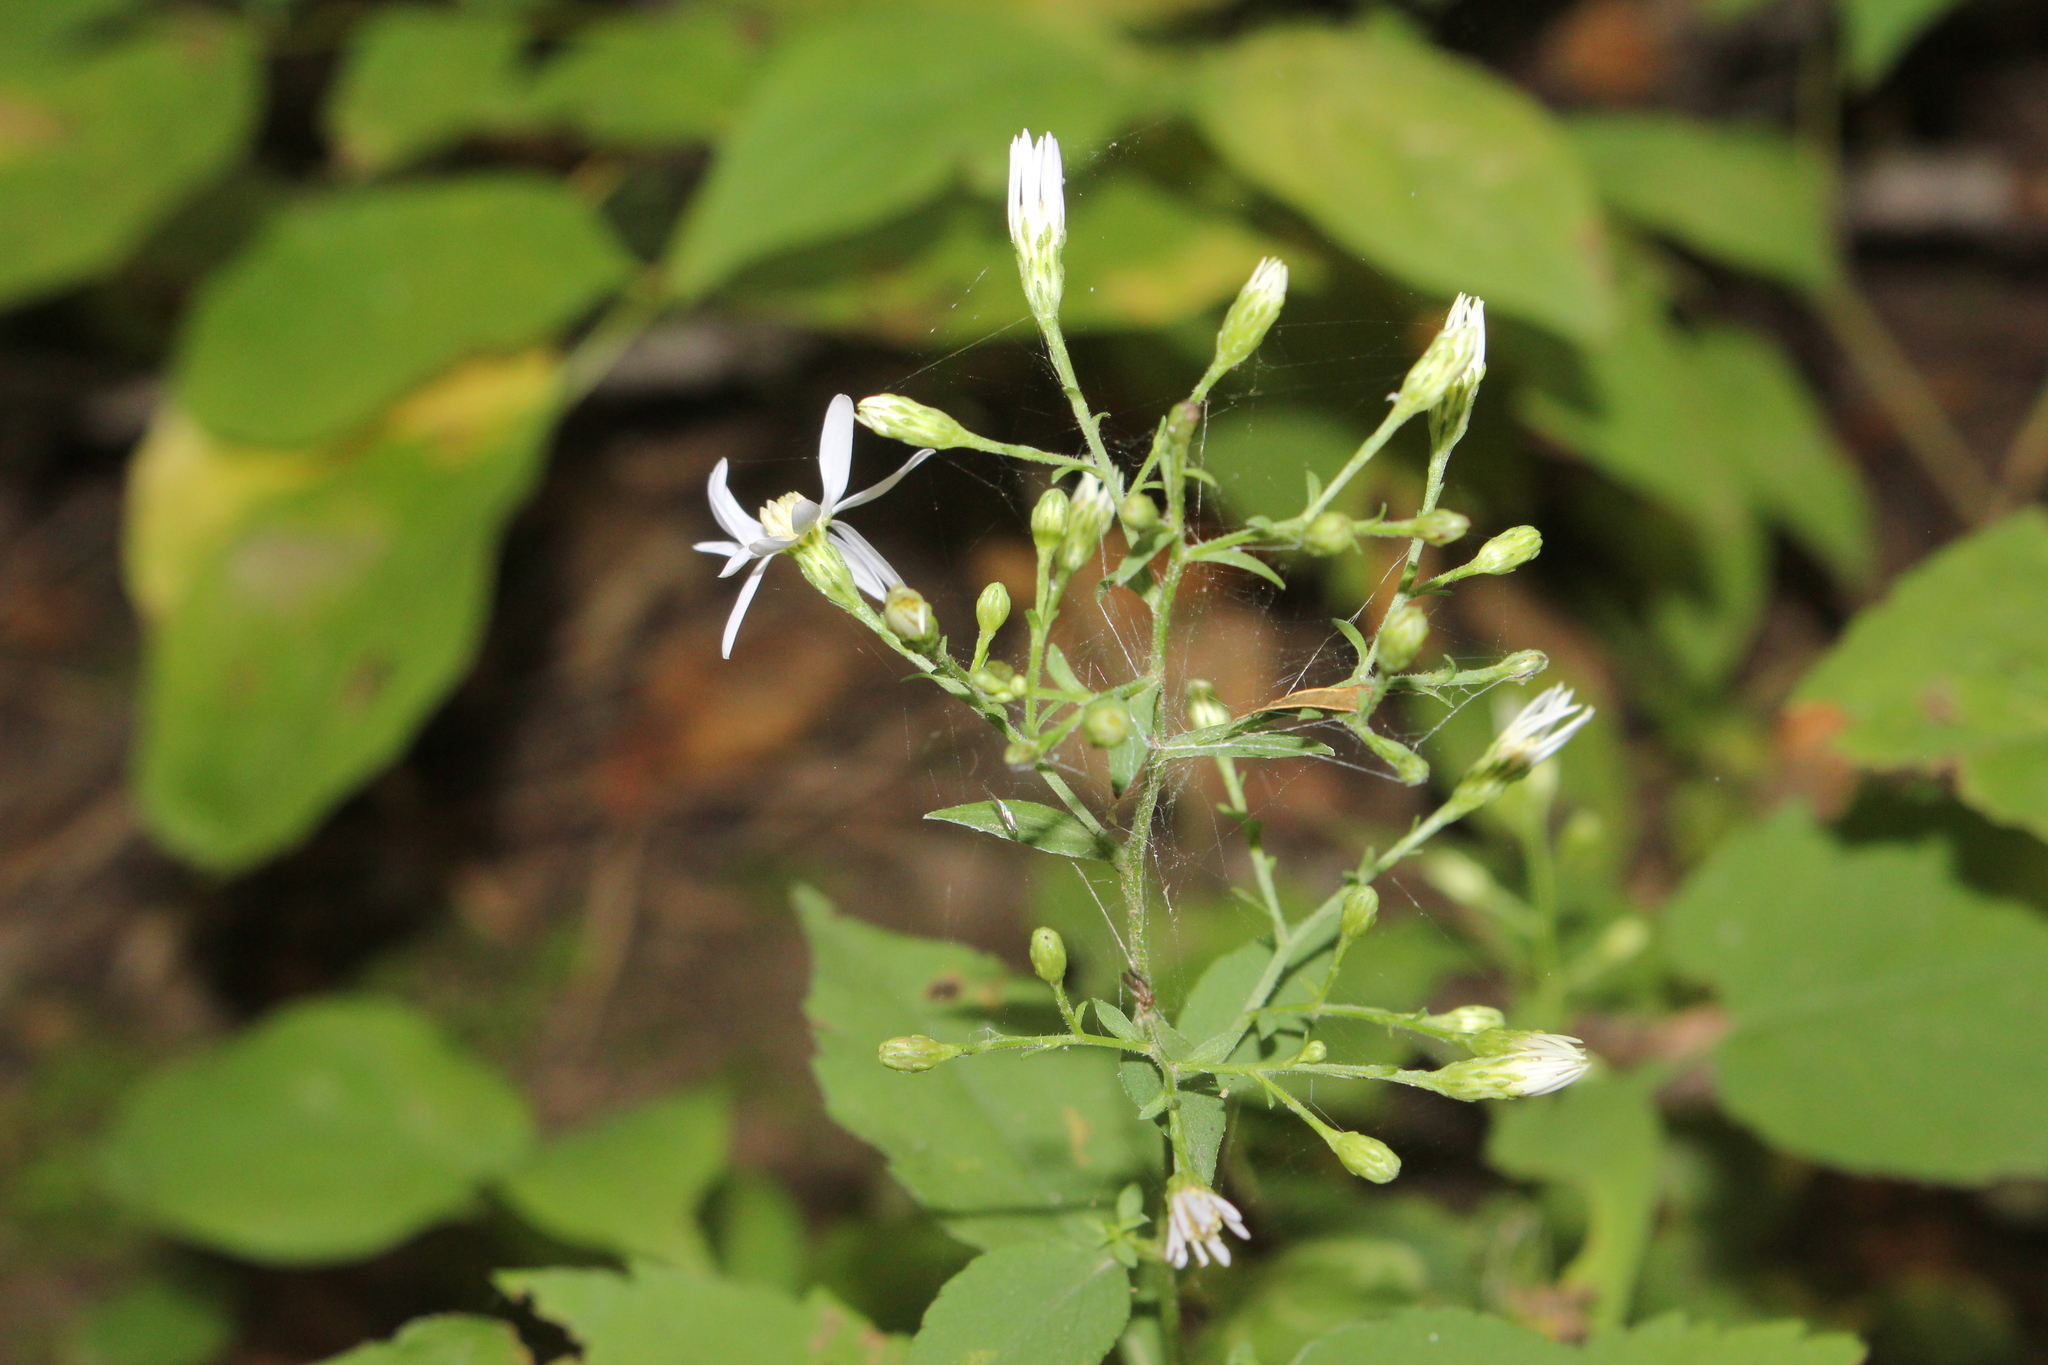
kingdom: Plantae
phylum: Tracheophyta
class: Magnoliopsida
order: Asterales
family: Asteraceae
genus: Symphyotrichum
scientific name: Symphyotrichum cordifolium
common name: Beeweed
